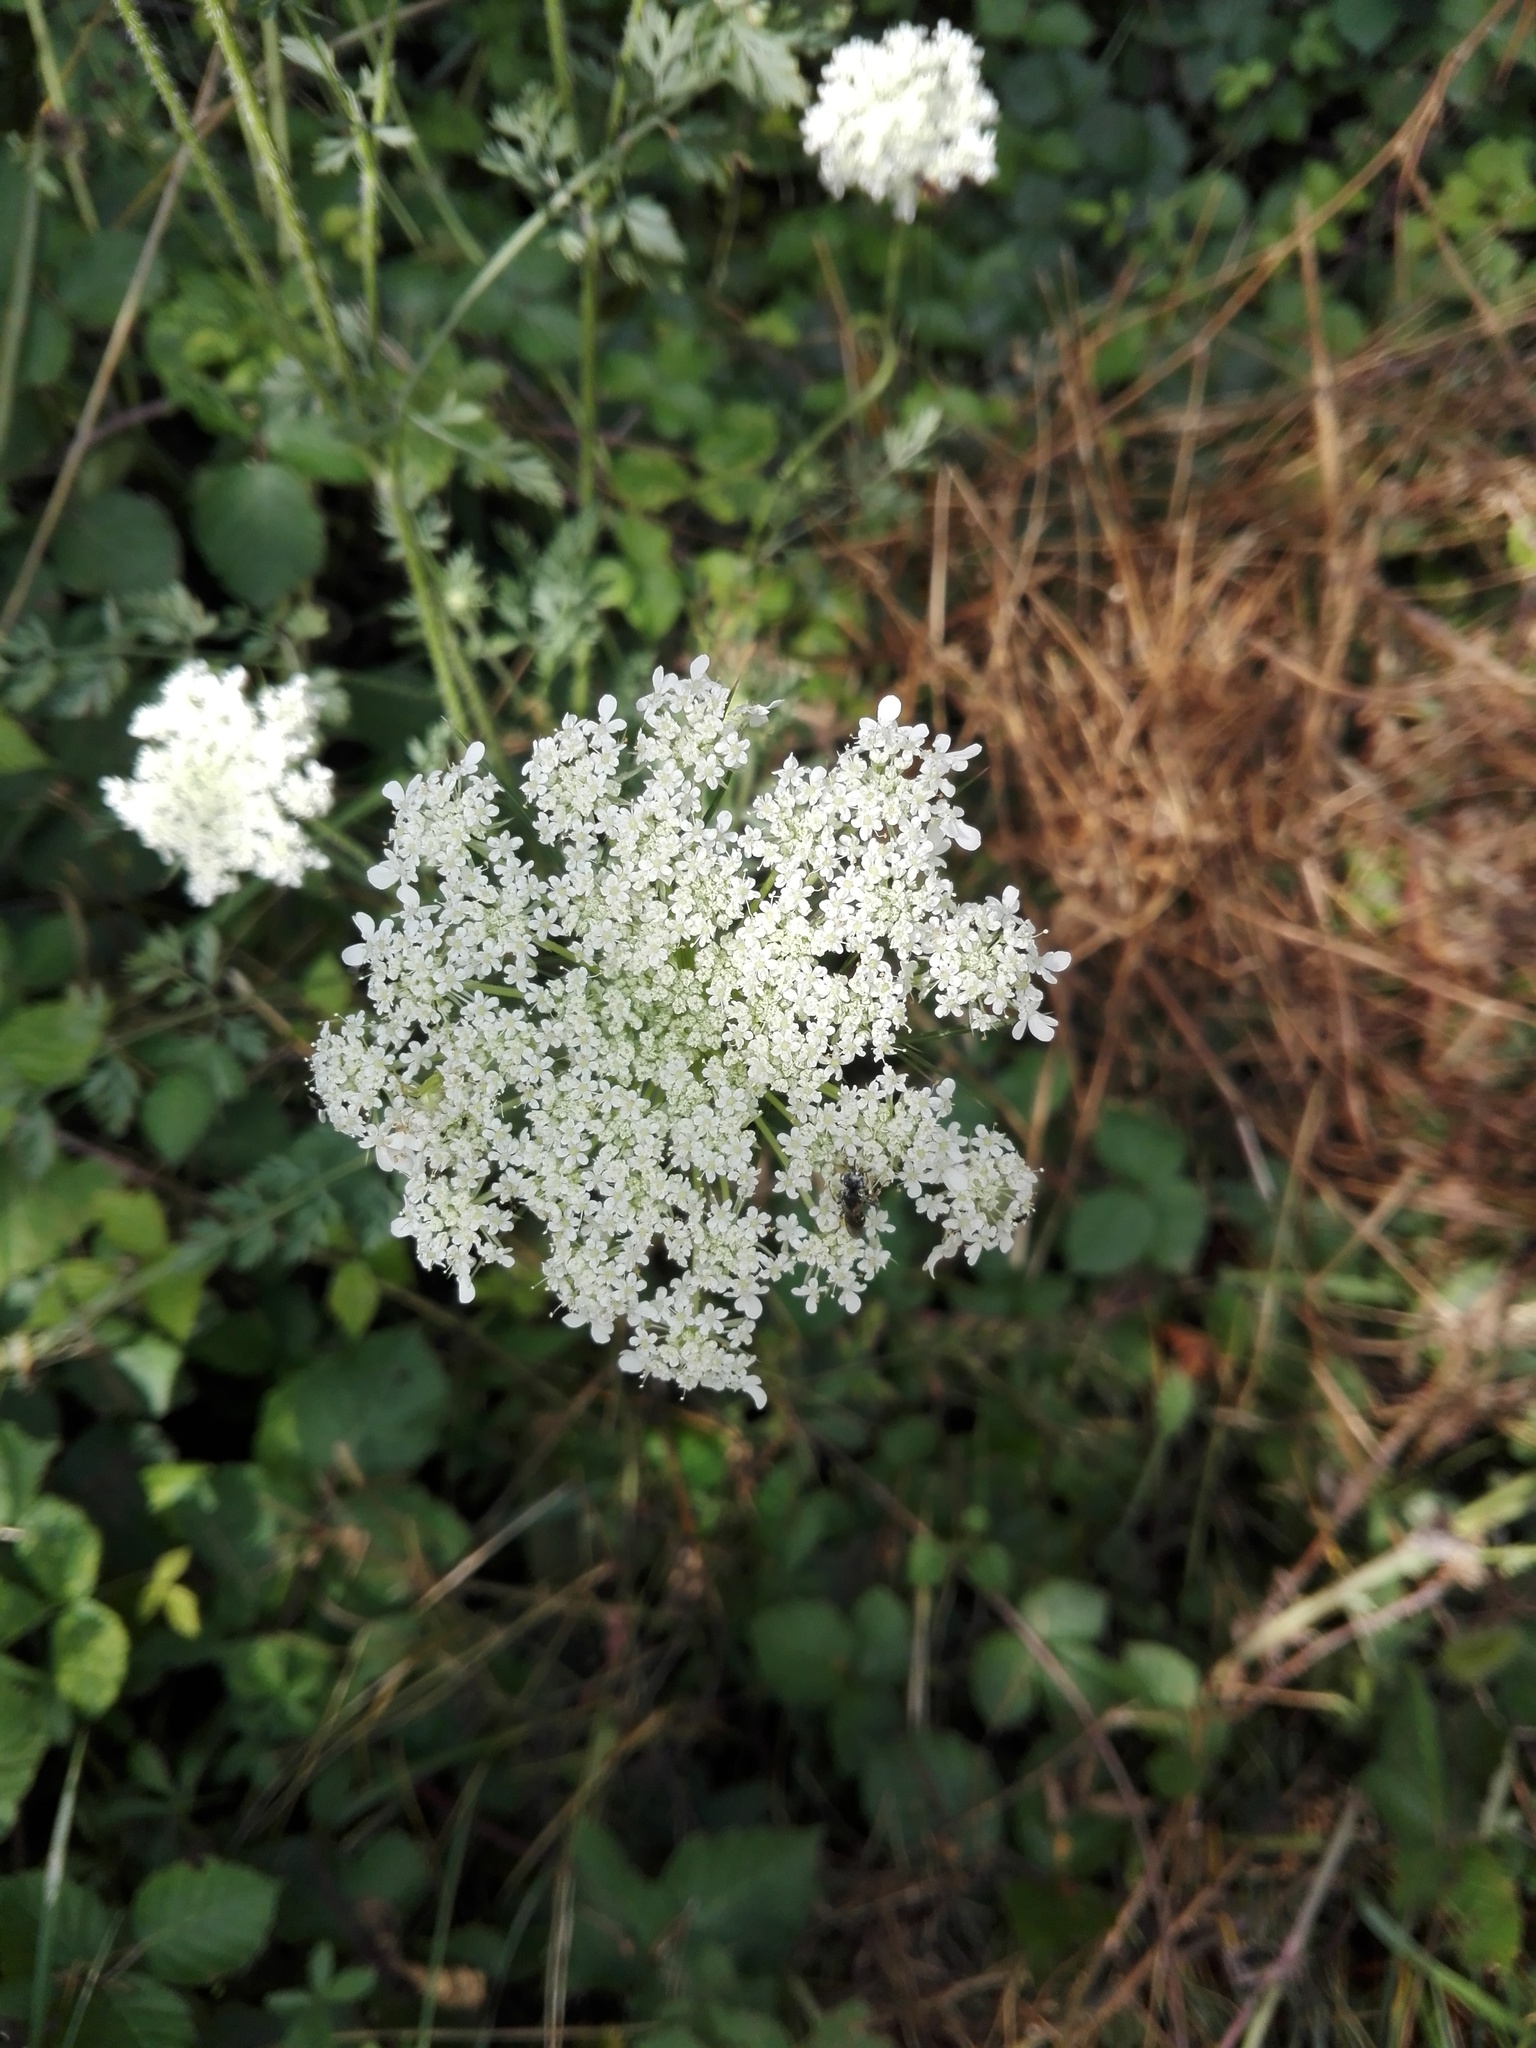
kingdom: Plantae
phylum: Tracheophyta
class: Magnoliopsida
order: Apiales
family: Apiaceae
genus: Daucus
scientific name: Daucus carota
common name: Wild carrot
